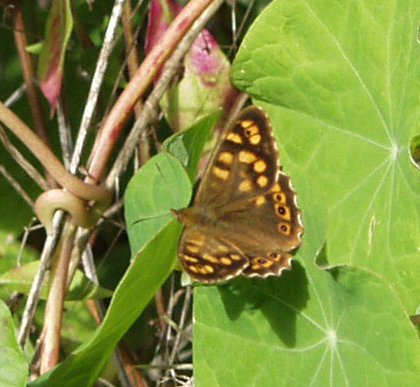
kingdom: Animalia
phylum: Arthropoda
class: Insecta
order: Lepidoptera
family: Nymphalidae
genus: Pararge
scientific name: Pararge aegeria
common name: Speckled wood
